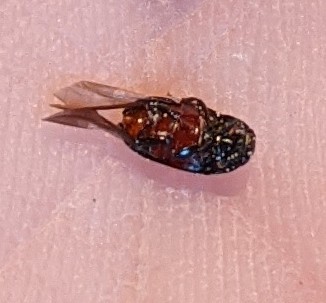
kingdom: Animalia
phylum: Arthropoda
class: Insecta
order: Coleoptera
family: Nitidulidae
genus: Glischrochilus
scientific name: Glischrochilus sanguinolentus
